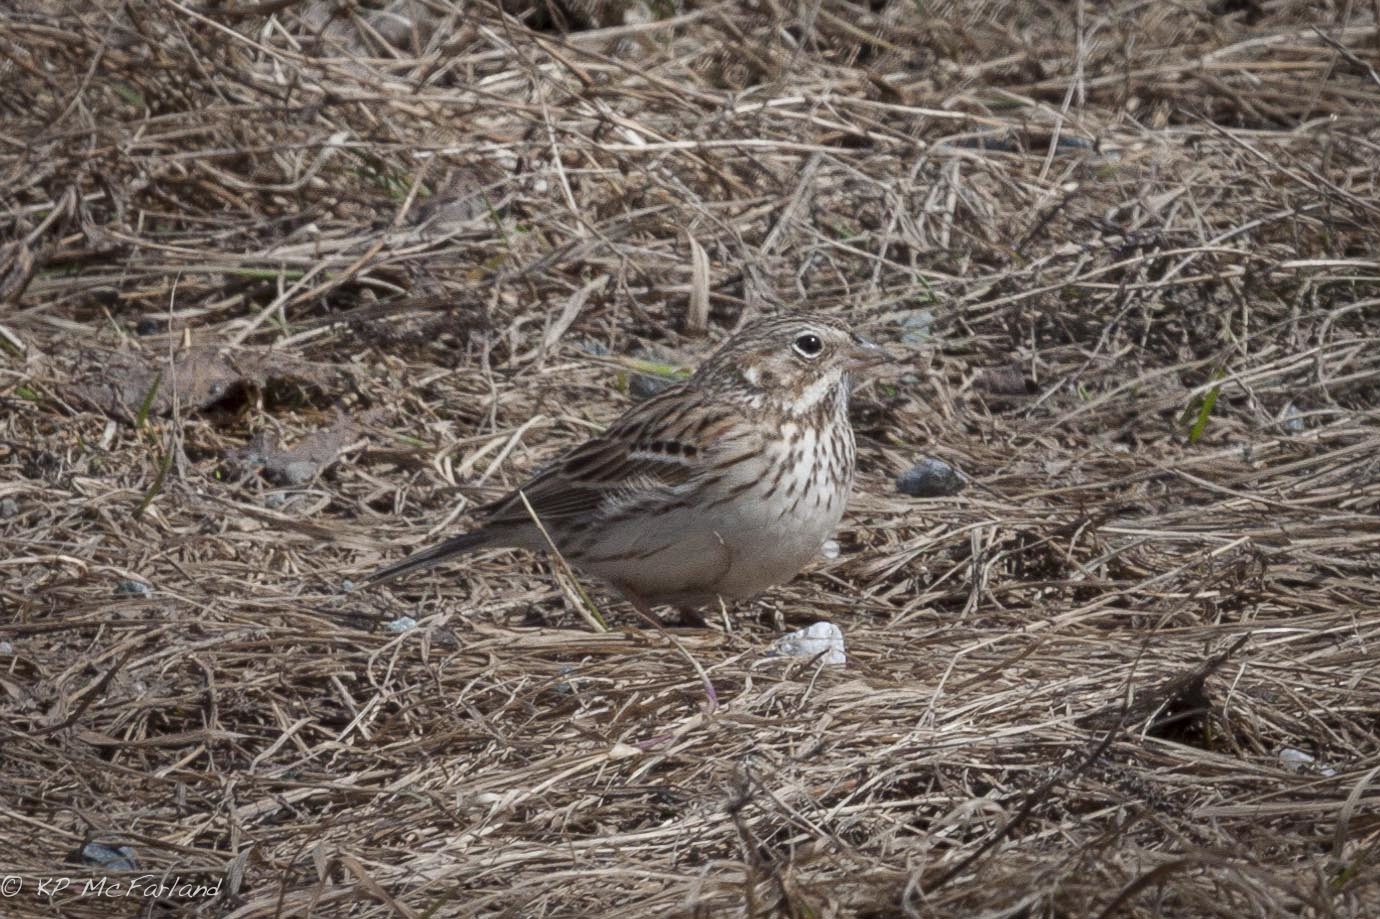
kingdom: Animalia
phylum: Chordata
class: Aves
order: Passeriformes
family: Passerellidae
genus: Pooecetes
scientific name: Pooecetes gramineus
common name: Vesper sparrow
